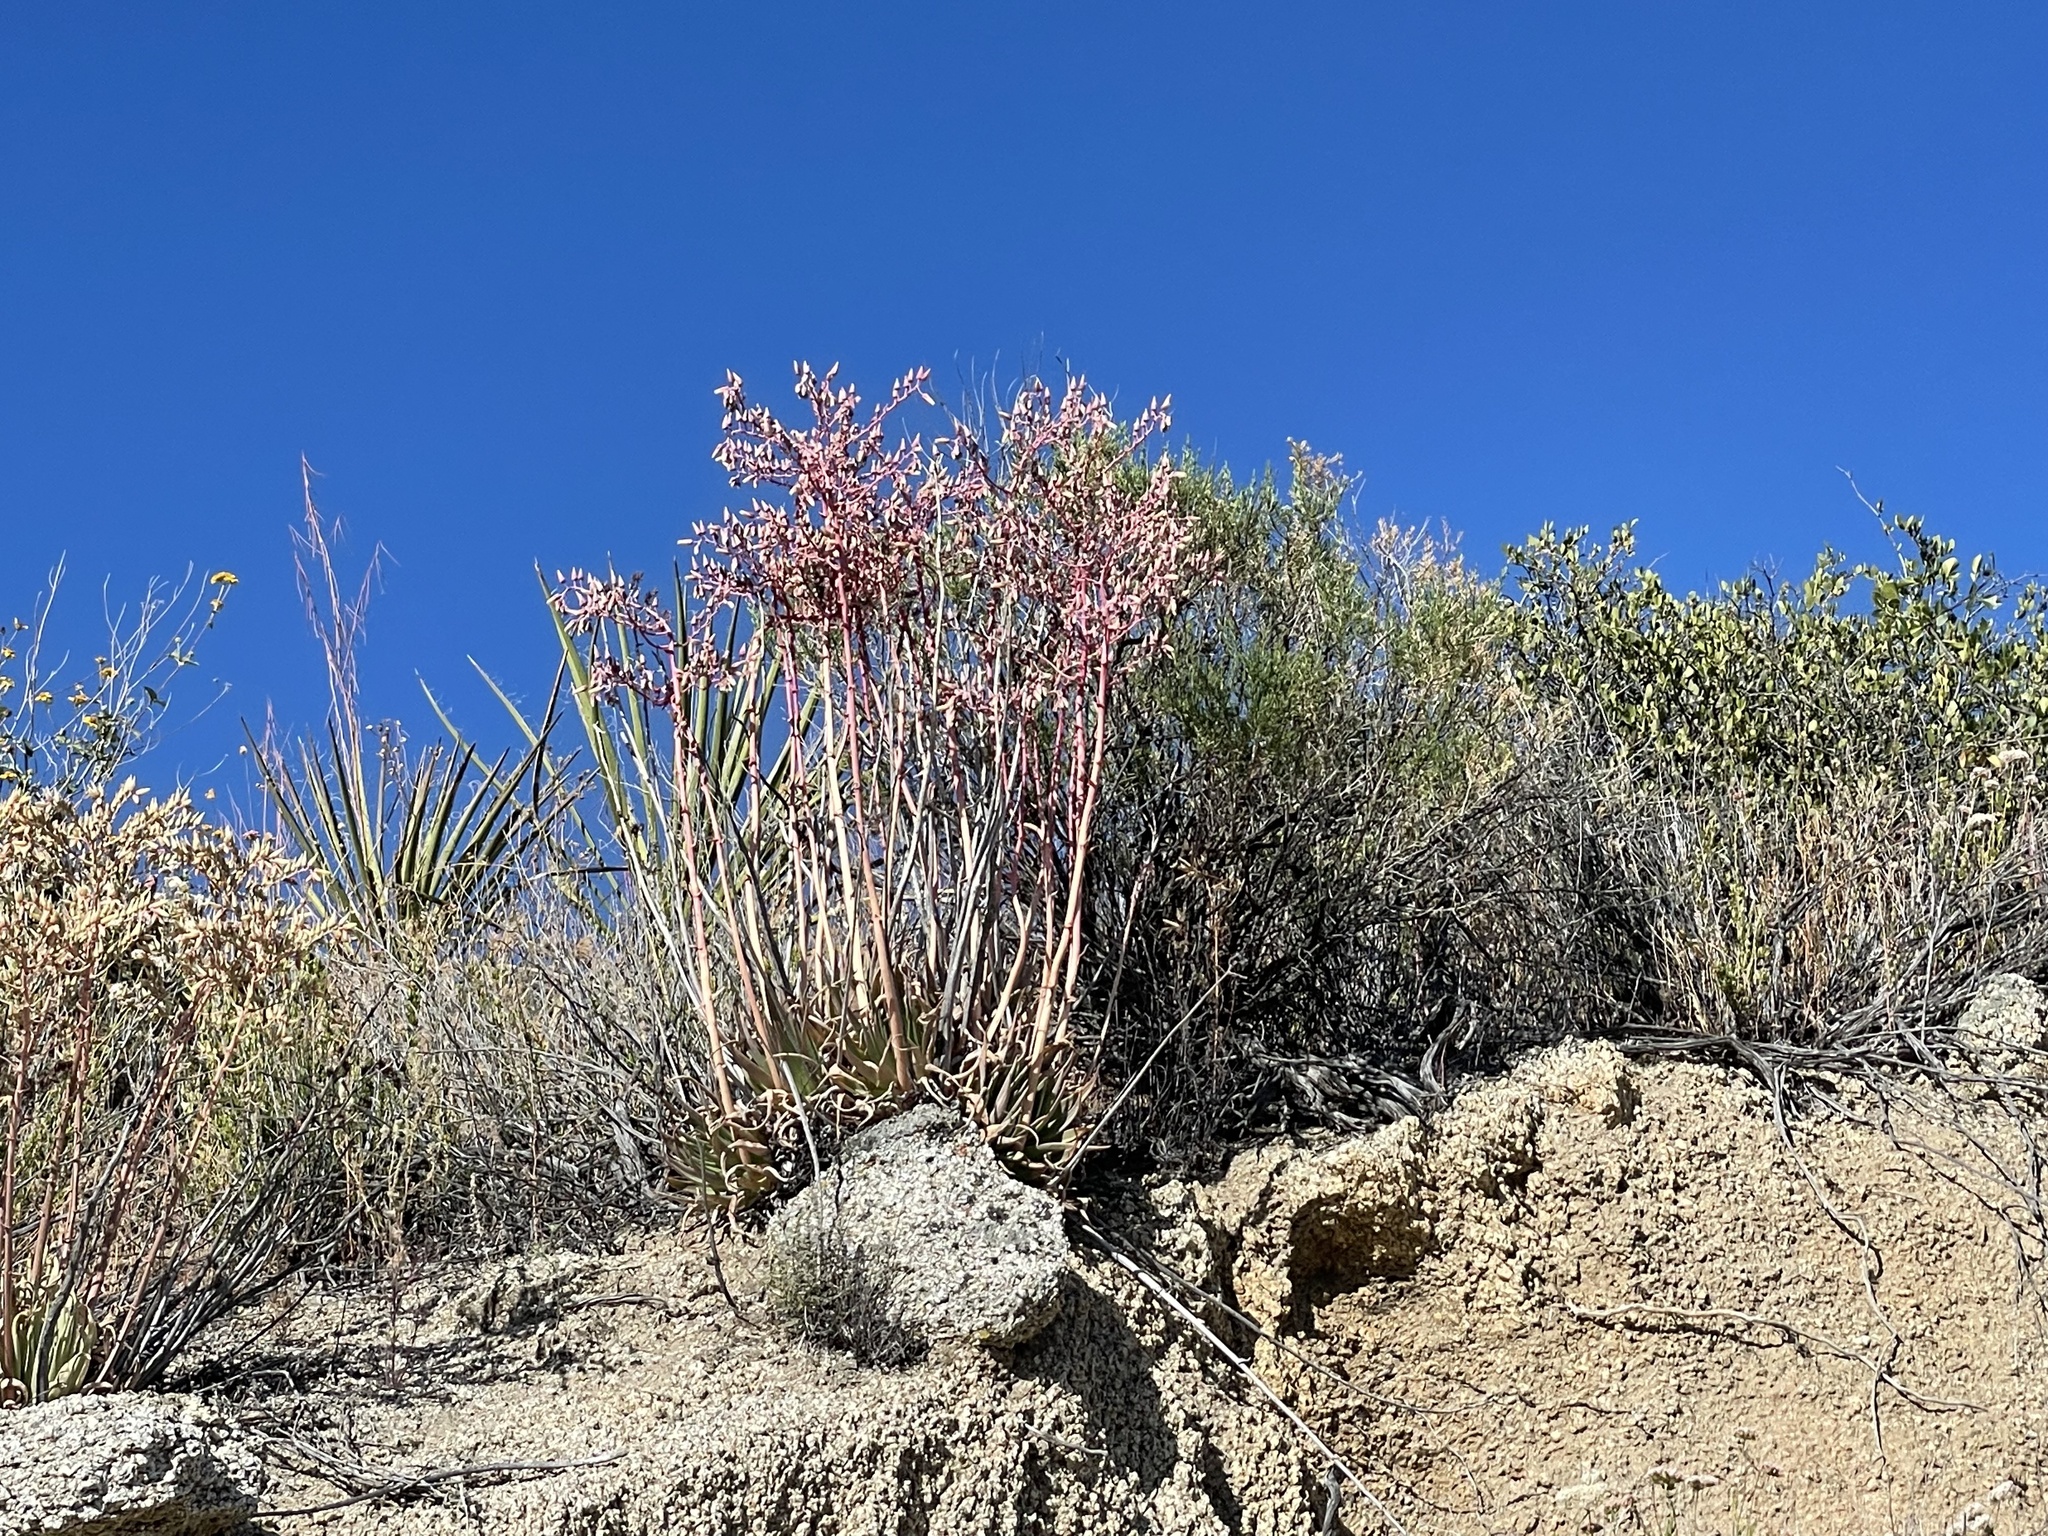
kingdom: Plantae
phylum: Tracheophyta
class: Magnoliopsida
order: Saxifragales
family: Crassulaceae
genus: Dudleya
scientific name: Dudleya ingens
